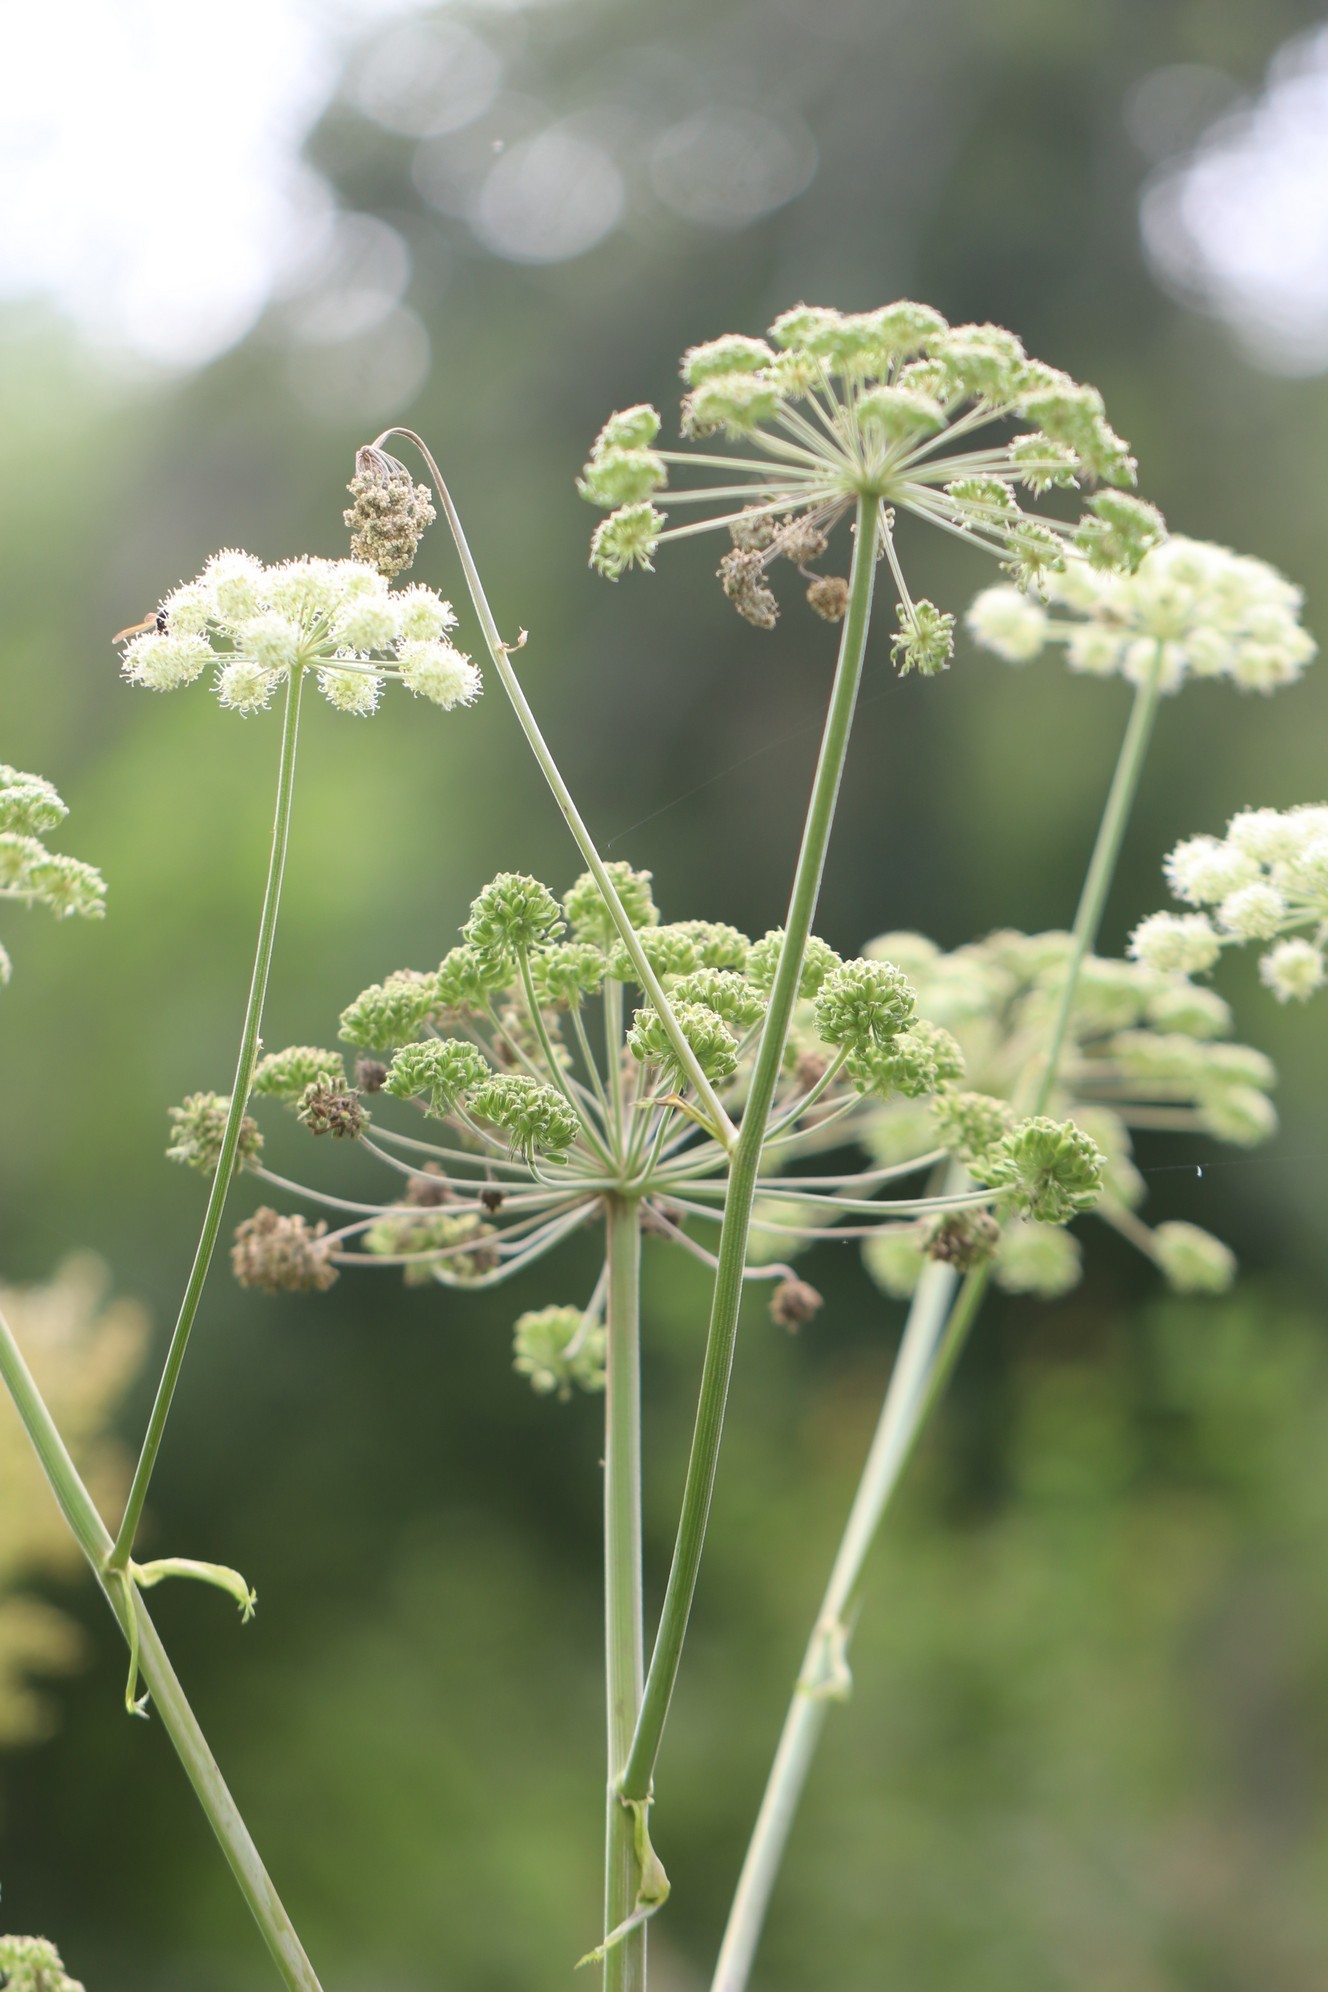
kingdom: Plantae
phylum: Tracheophyta
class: Magnoliopsida
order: Apiales
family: Apiaceae
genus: Angelica
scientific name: Angelica sylvestris
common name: Wild angelica
